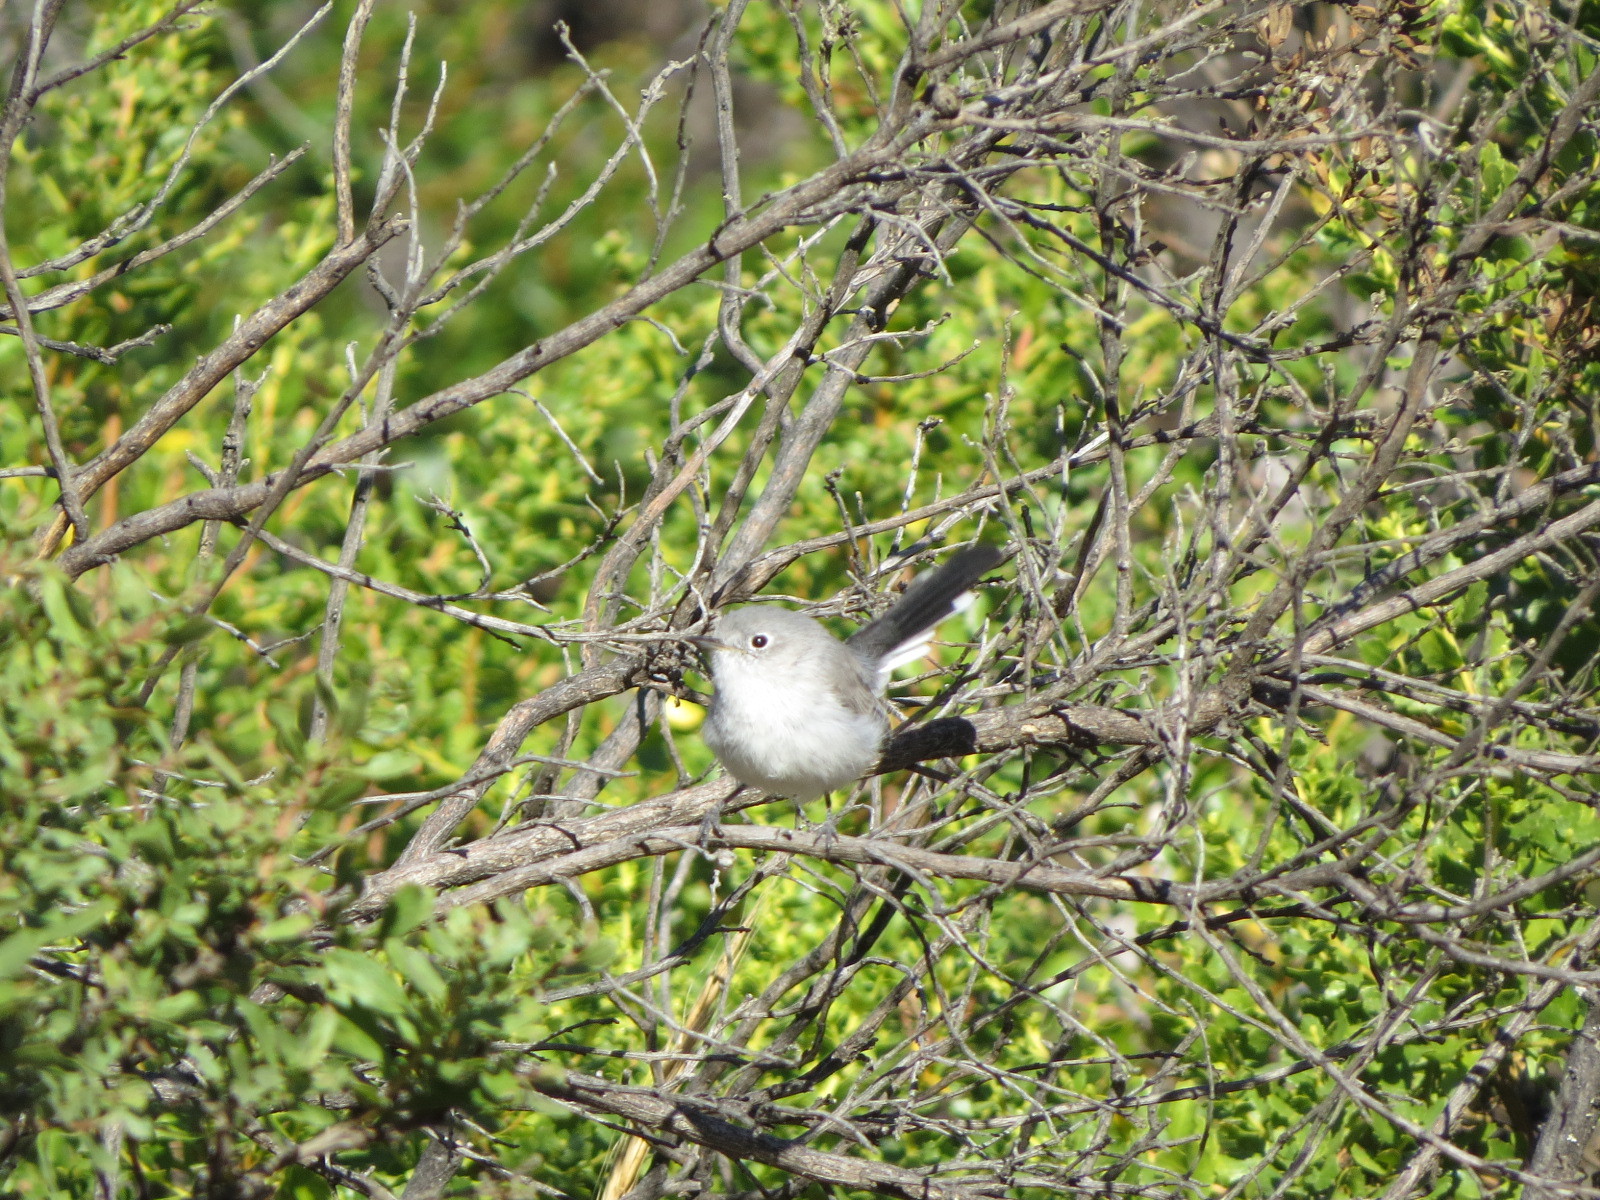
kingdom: Animalia
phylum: Chordata
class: Aves
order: Passeriformes
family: Polioptilidae
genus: Polioptila
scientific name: Polioptila caerulea
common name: Blue-gray gnatcatcher
